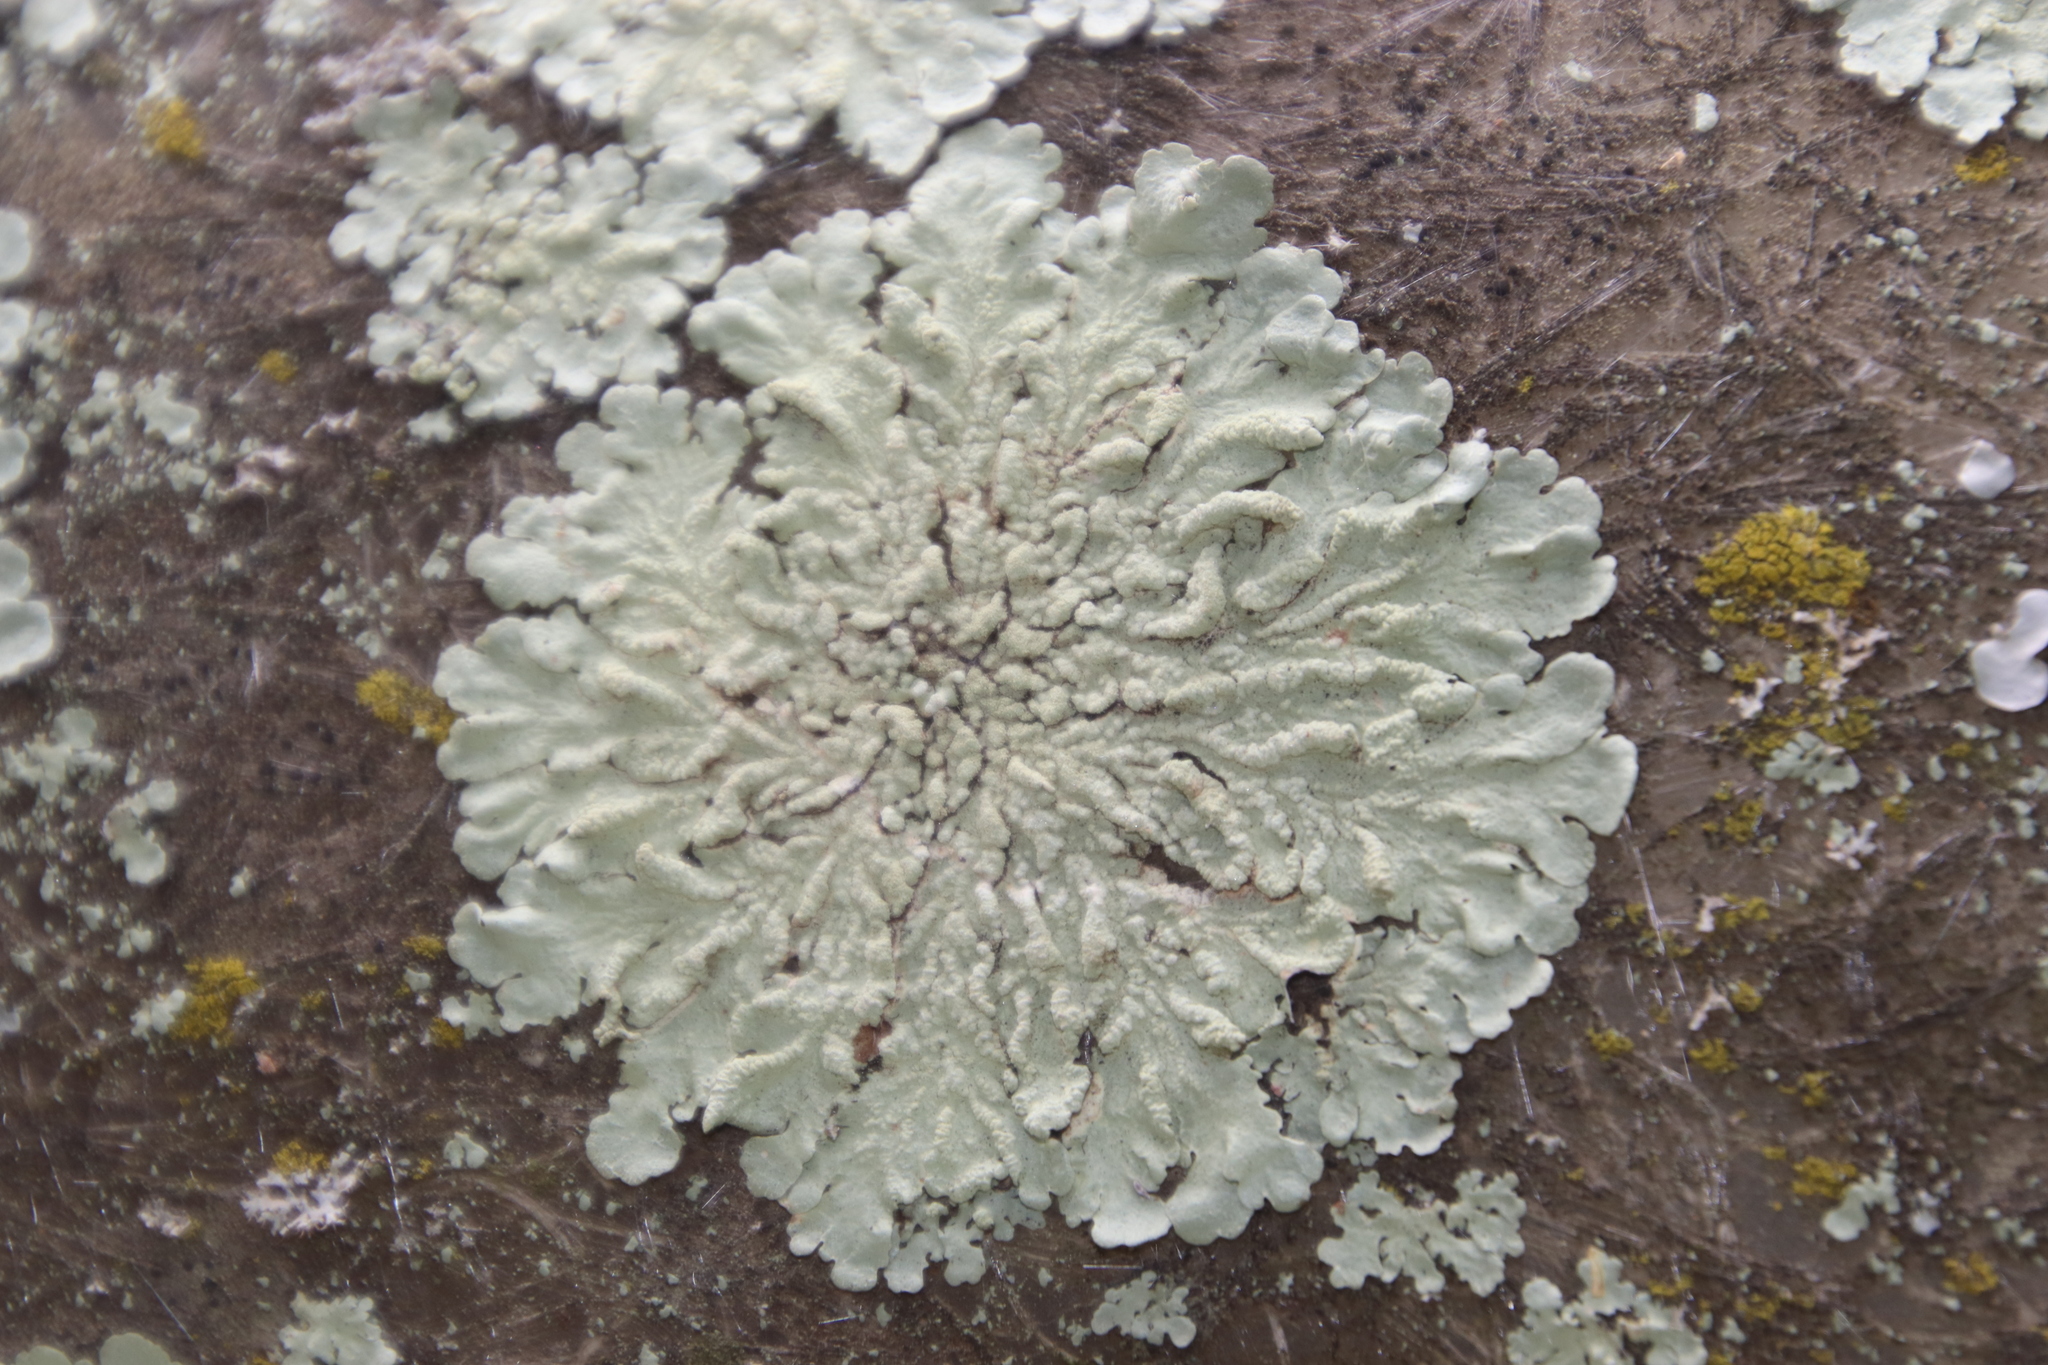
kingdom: Fungi
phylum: Ascomycota
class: Lecanoromycetes
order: Lecanorales
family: Parmeliaceae
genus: Flavoparmelia
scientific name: Flavoparmelia soredians
